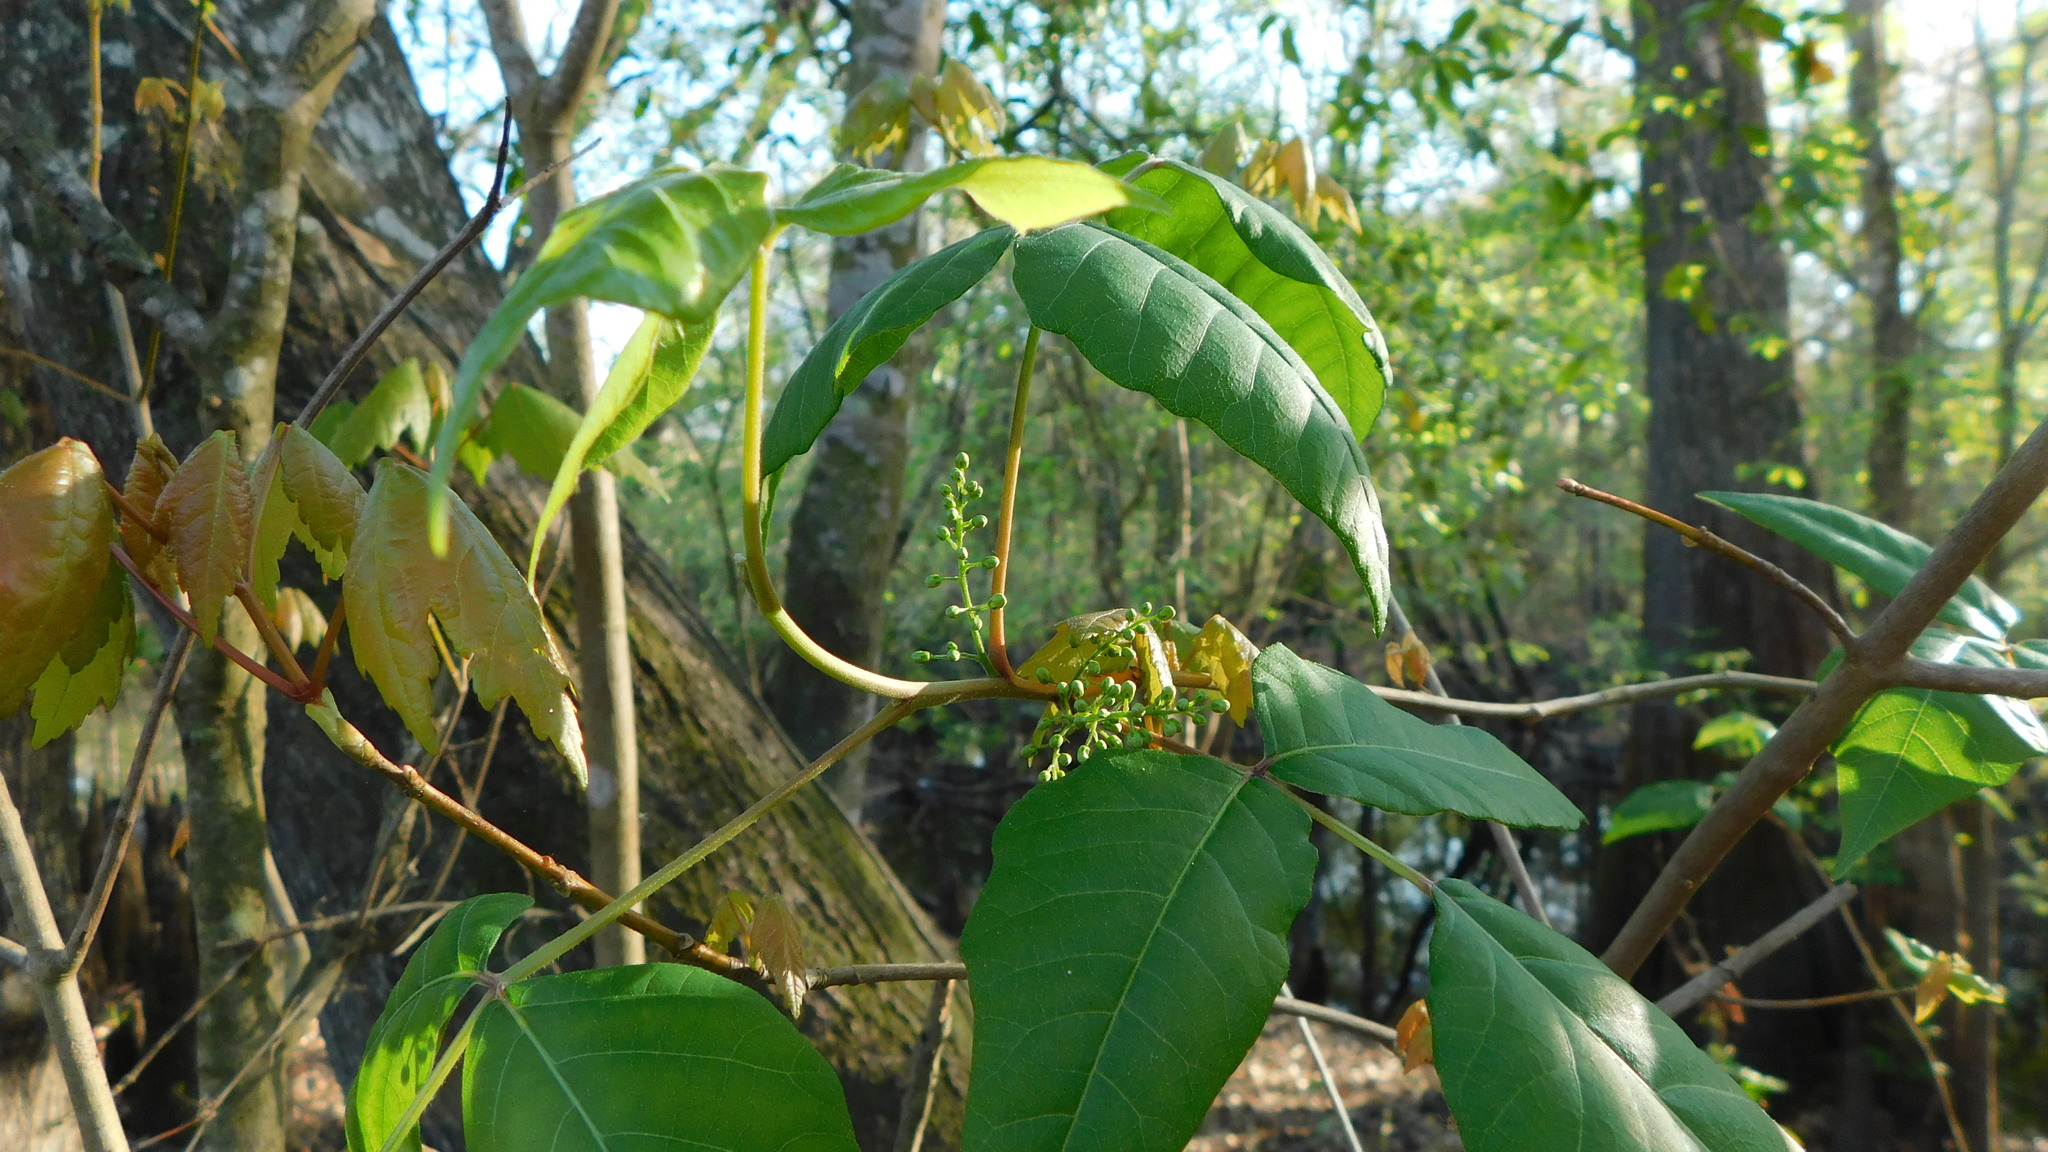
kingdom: Plantae
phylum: Tracheophyta
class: Magnoliopsida
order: Sapindales
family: Anacardiaceae
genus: Toxicodendron
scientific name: Toxicodendron radicans
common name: Poison ivy
